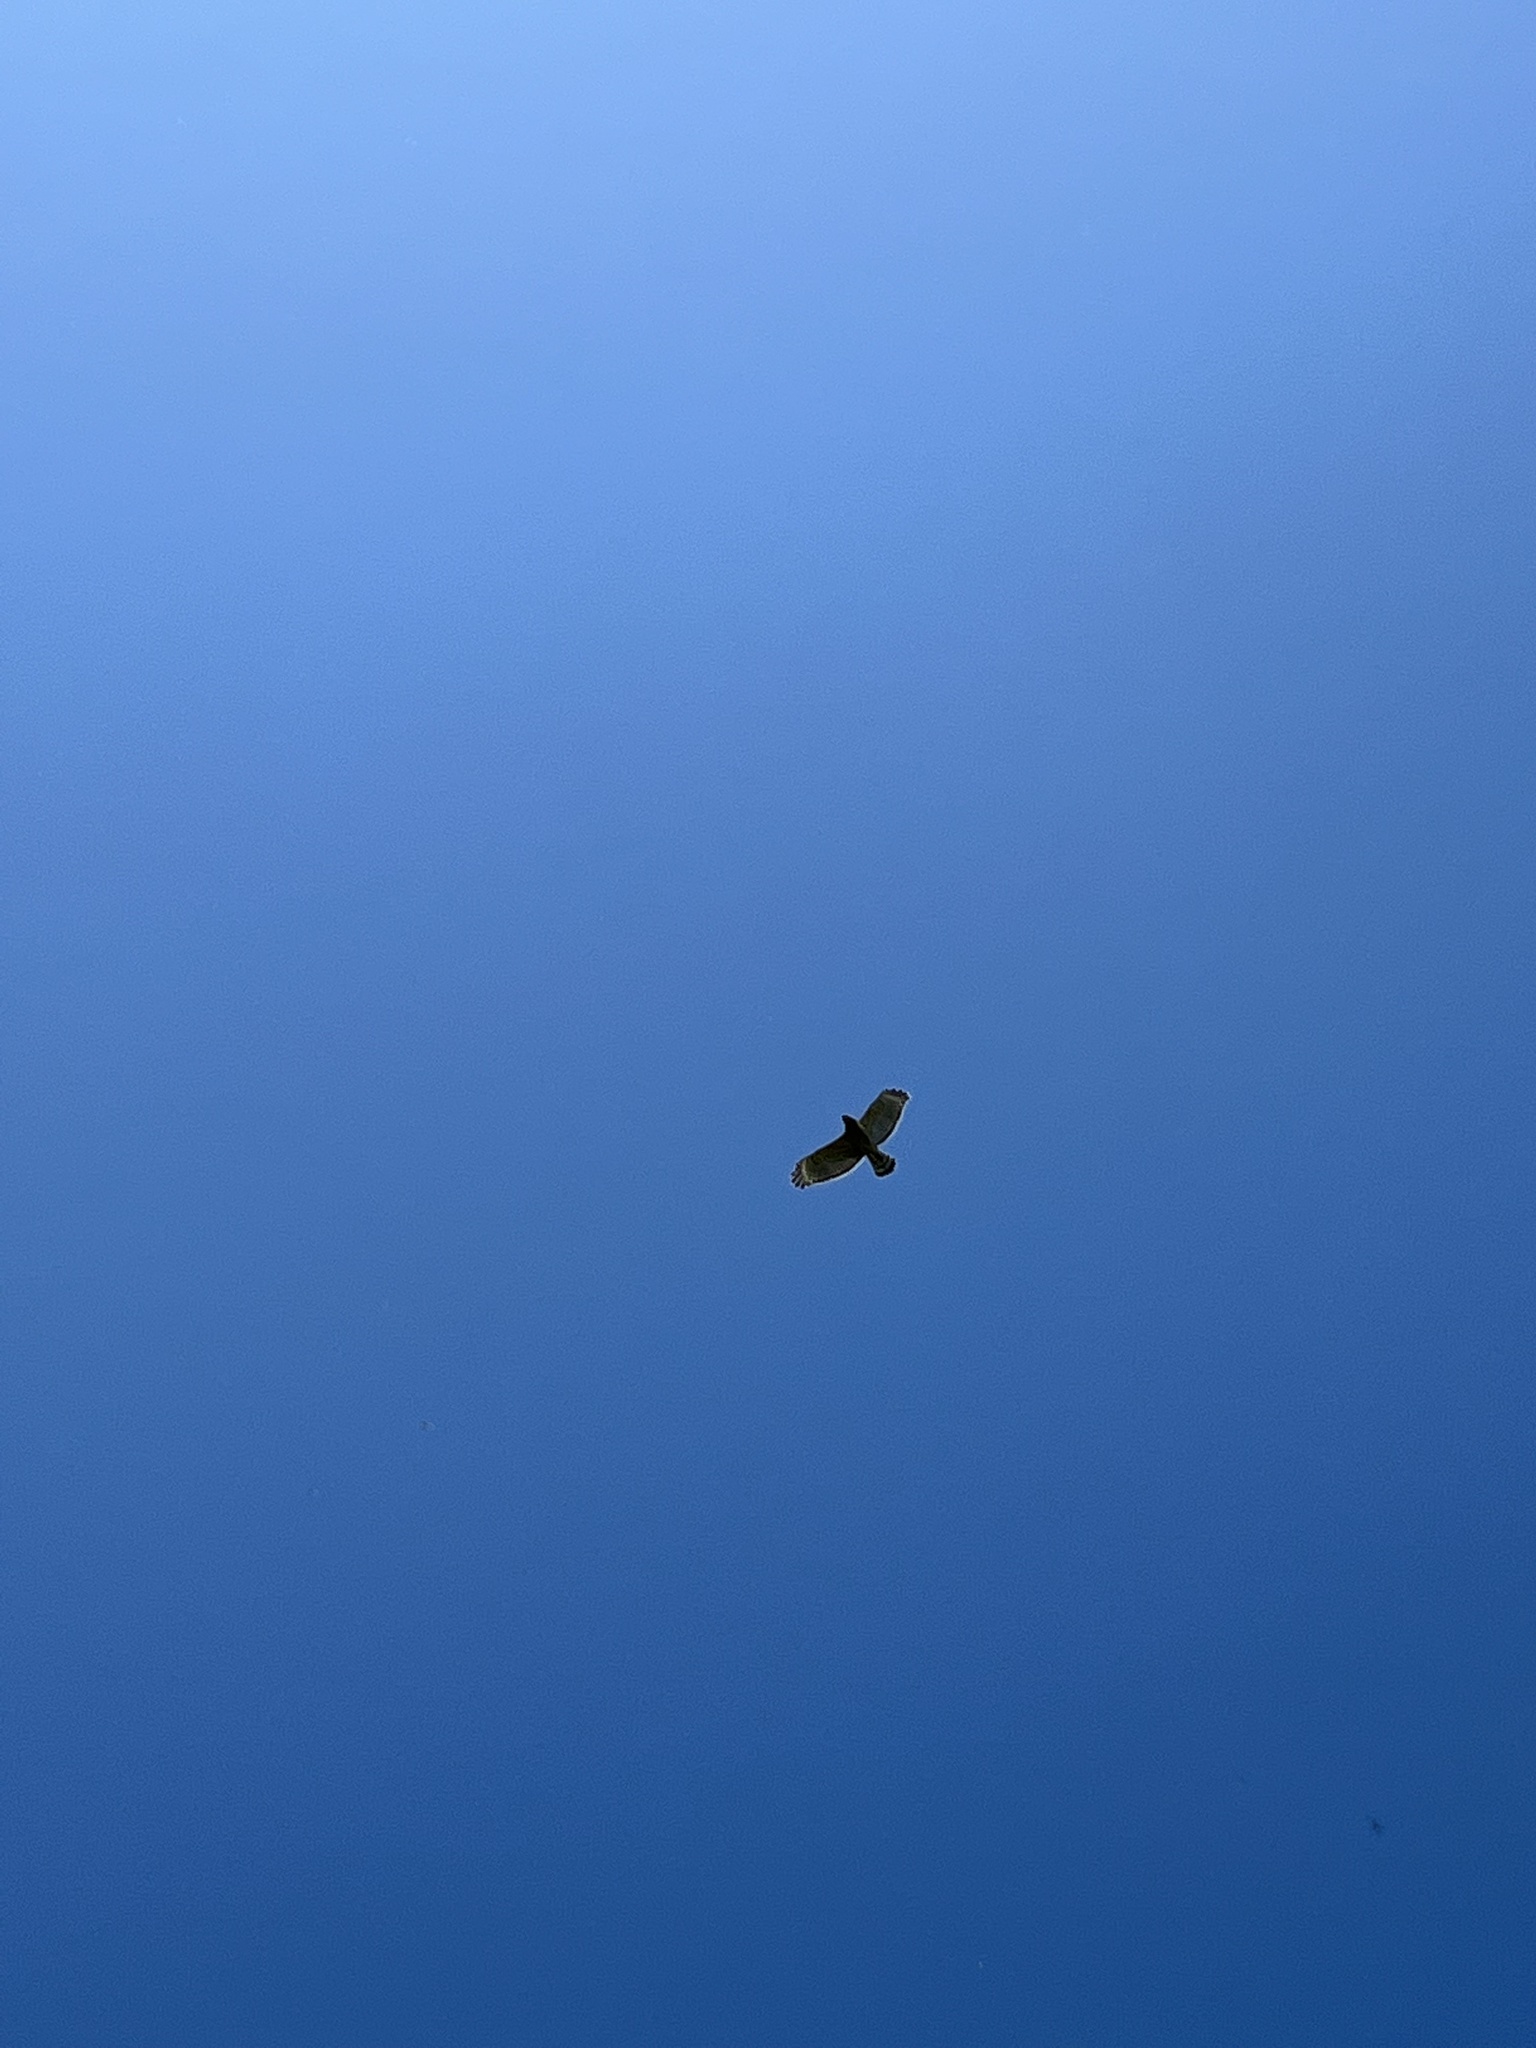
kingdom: Animalia
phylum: Chordata
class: Aves
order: Accipitriformes
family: Accipitridae
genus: Buteo
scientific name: Buteo lineatus
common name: Red-shouldered hawk
